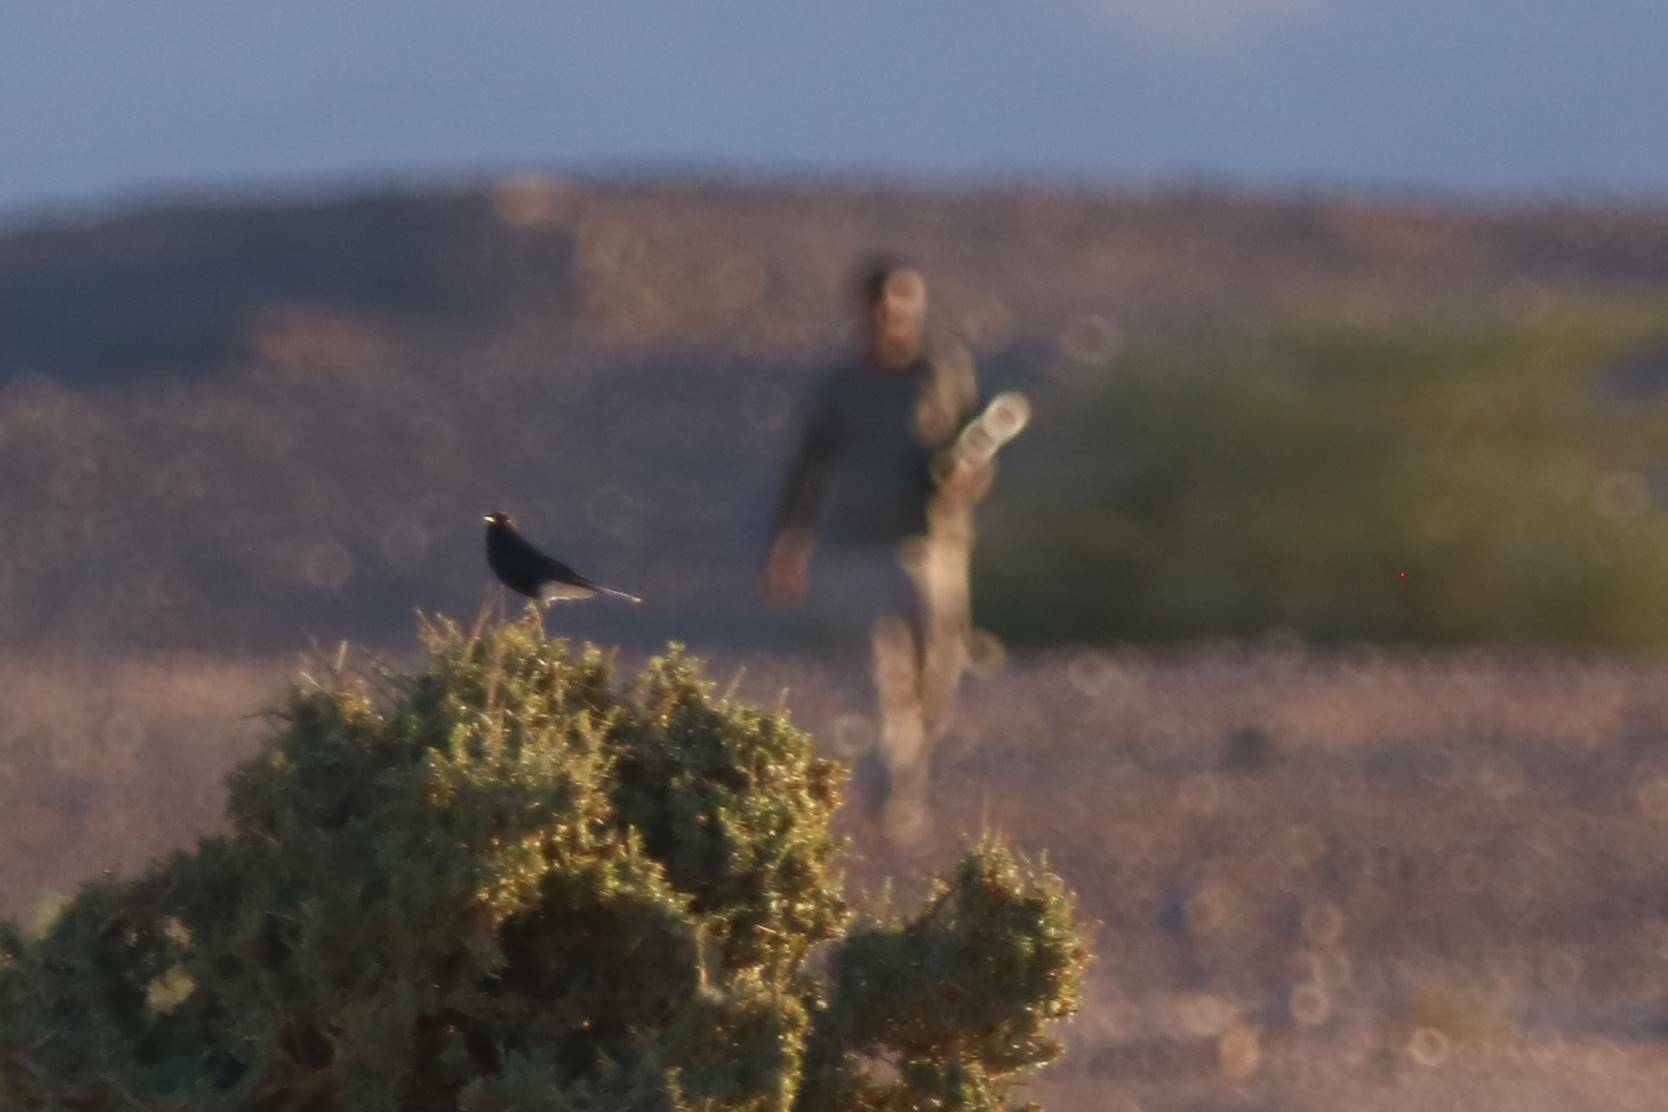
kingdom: Animalia
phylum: Chordata
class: Aves
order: Passeriformes
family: Muscicapidae
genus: Oenanthe
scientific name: Oenanthe leucopyga
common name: White-crowned wheatear
